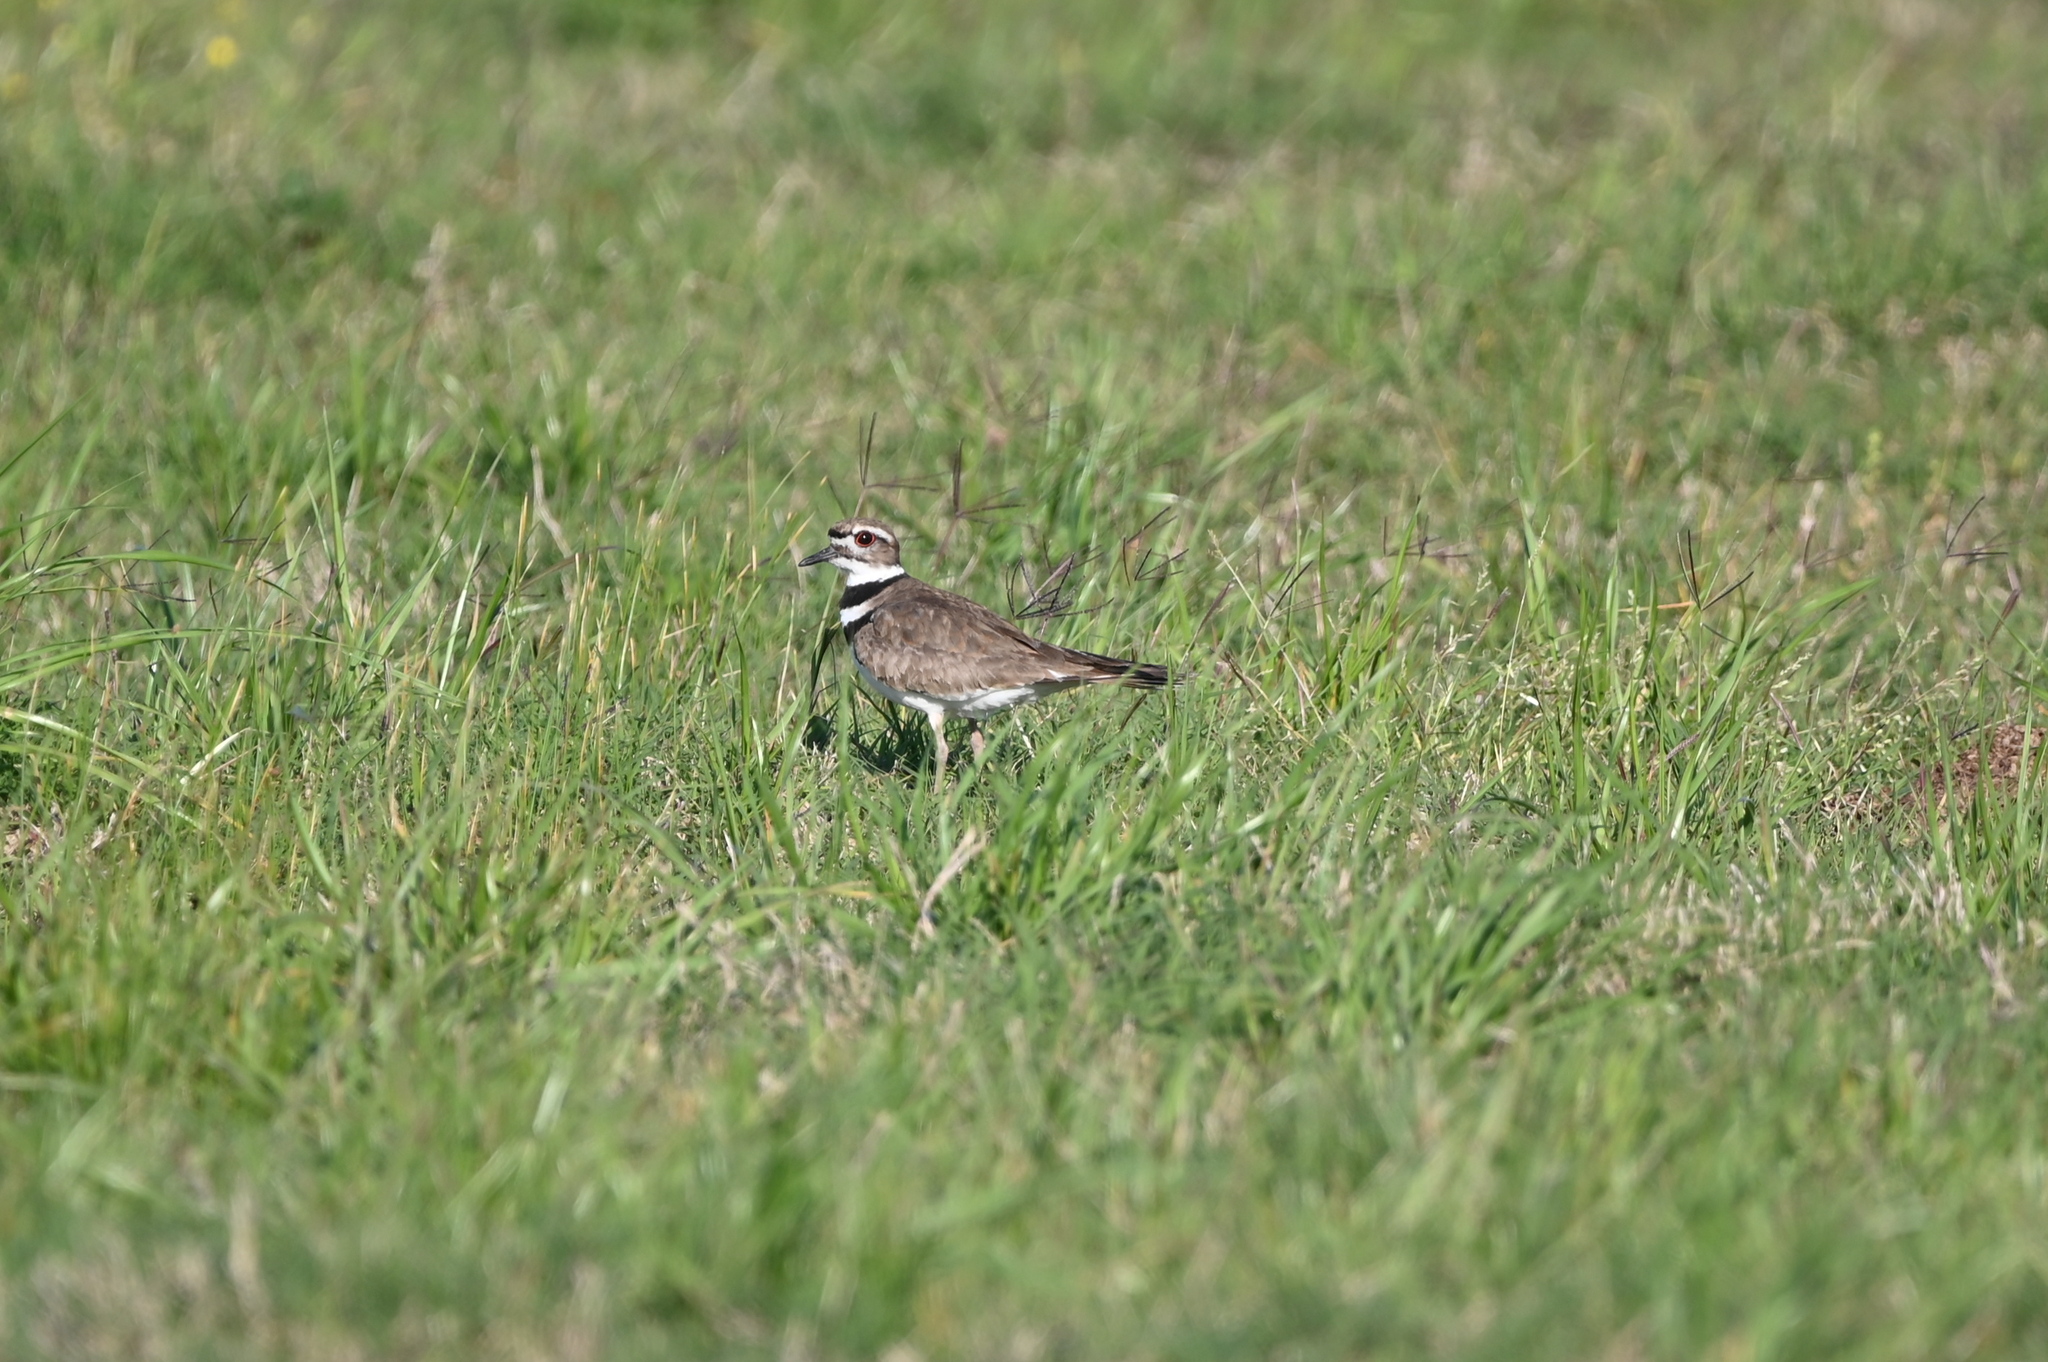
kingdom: Animalia
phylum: Chordata
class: Aves
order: Charadriiformes
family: Charadriidae
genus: Charadrius
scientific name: Charadrius vociferus
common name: Killdeer
